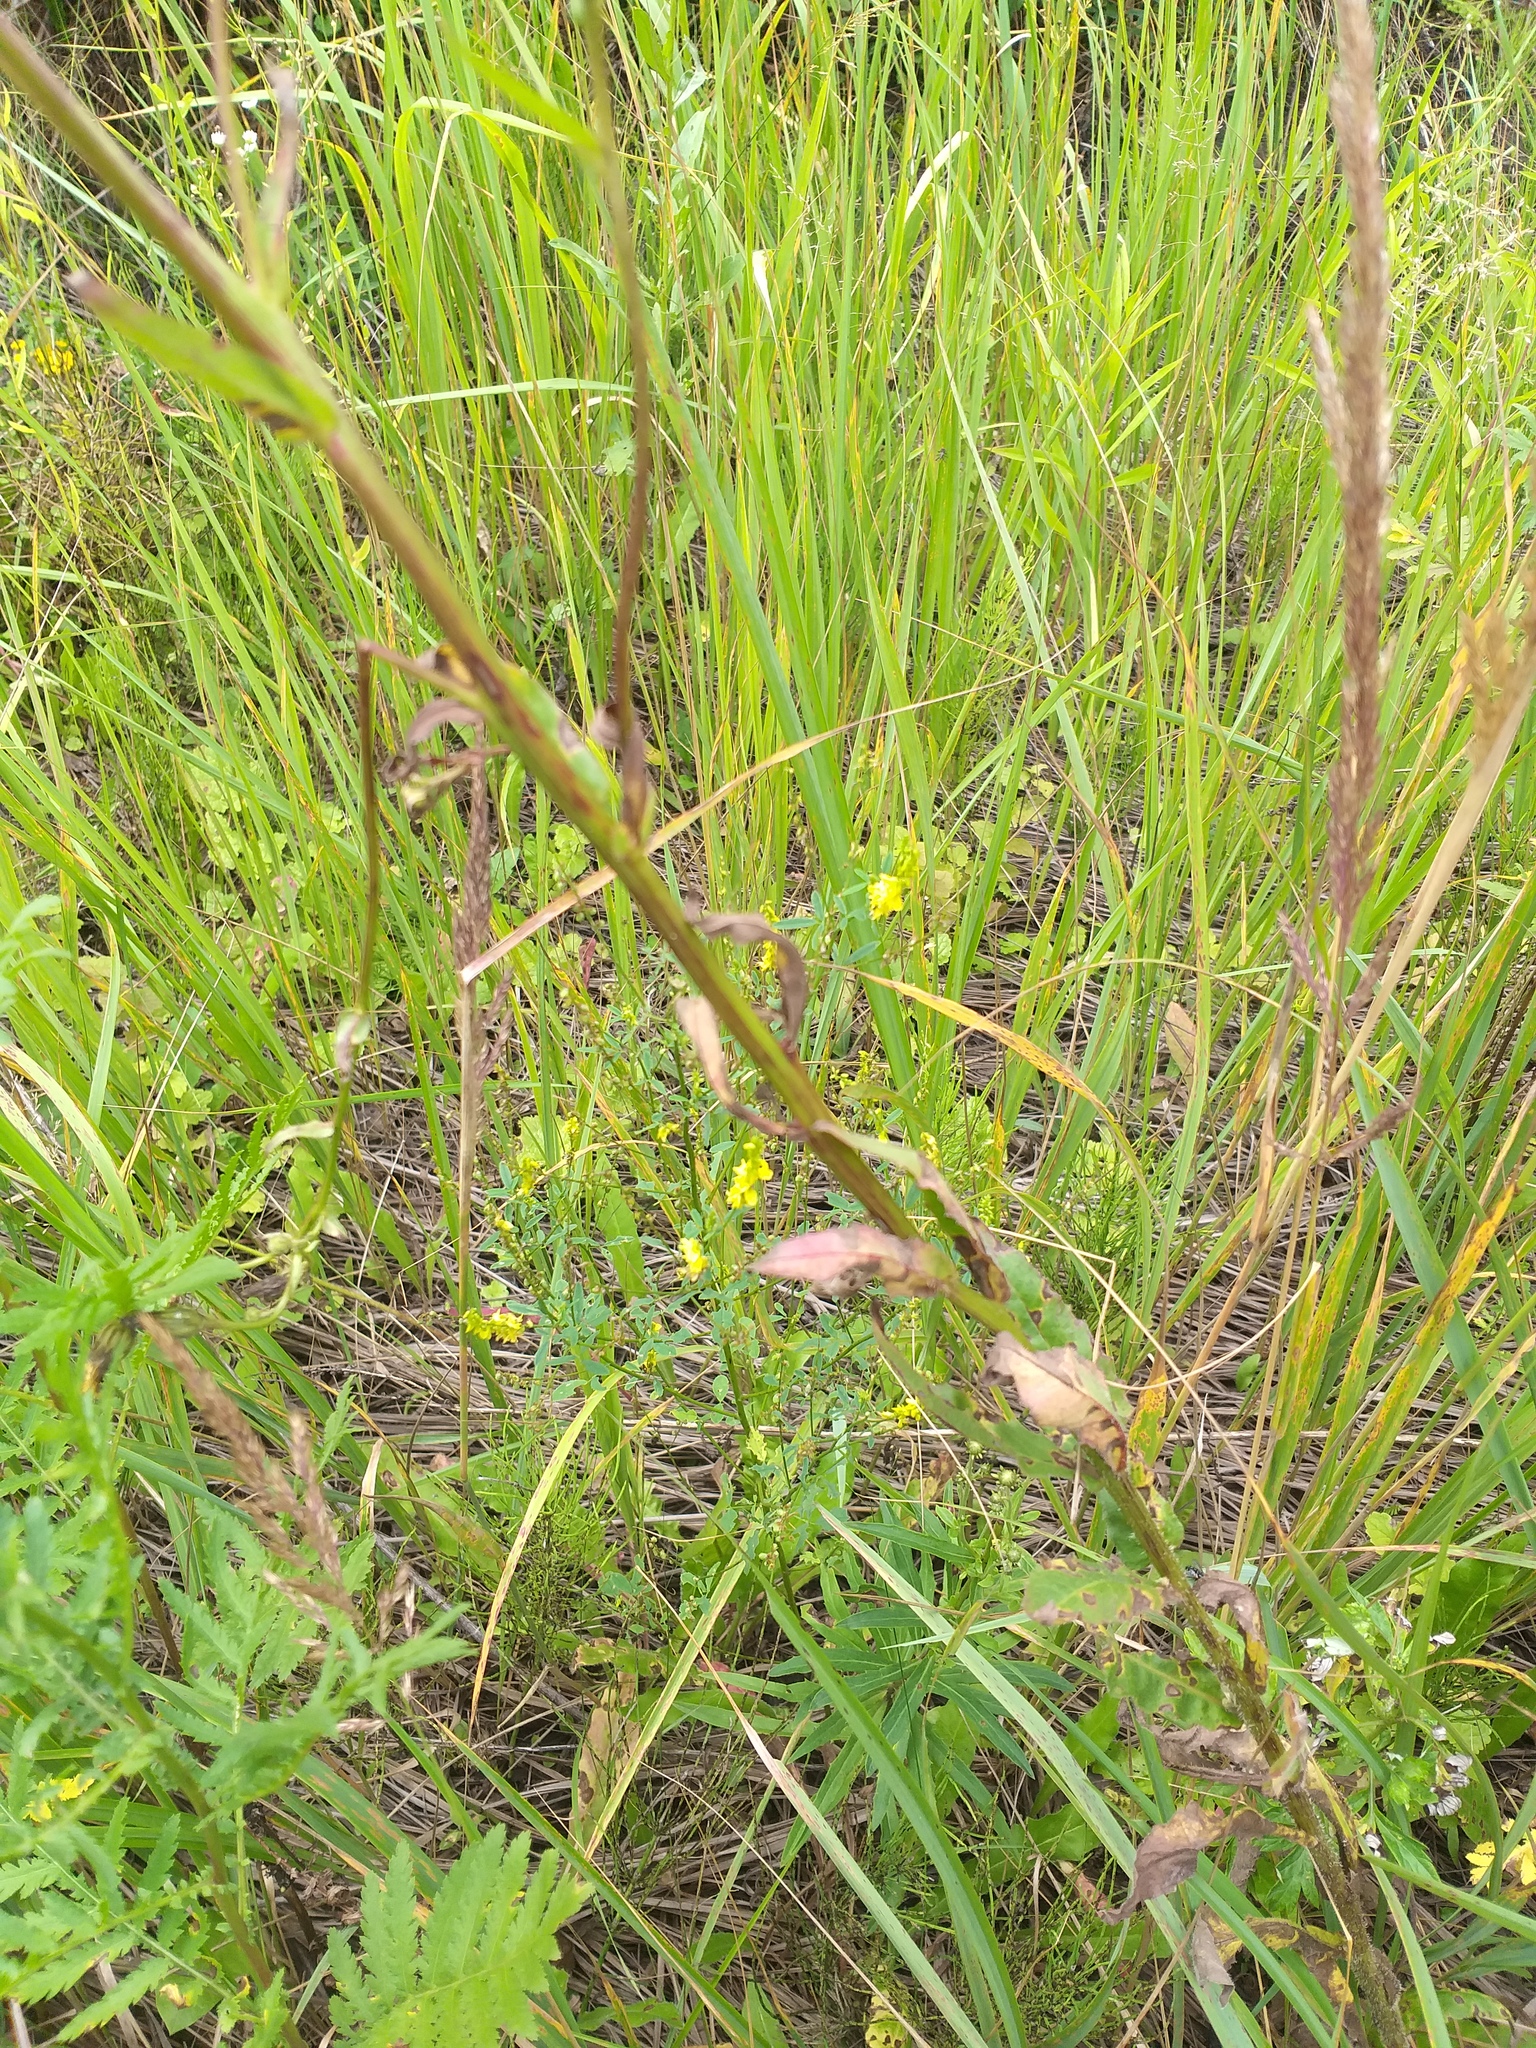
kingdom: Plantae
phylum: Tracheophyta
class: Magnoliopsida
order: Fabales
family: Fabaceae
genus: Melilotus
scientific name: Melilotus officinalis
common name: Sweetclover
